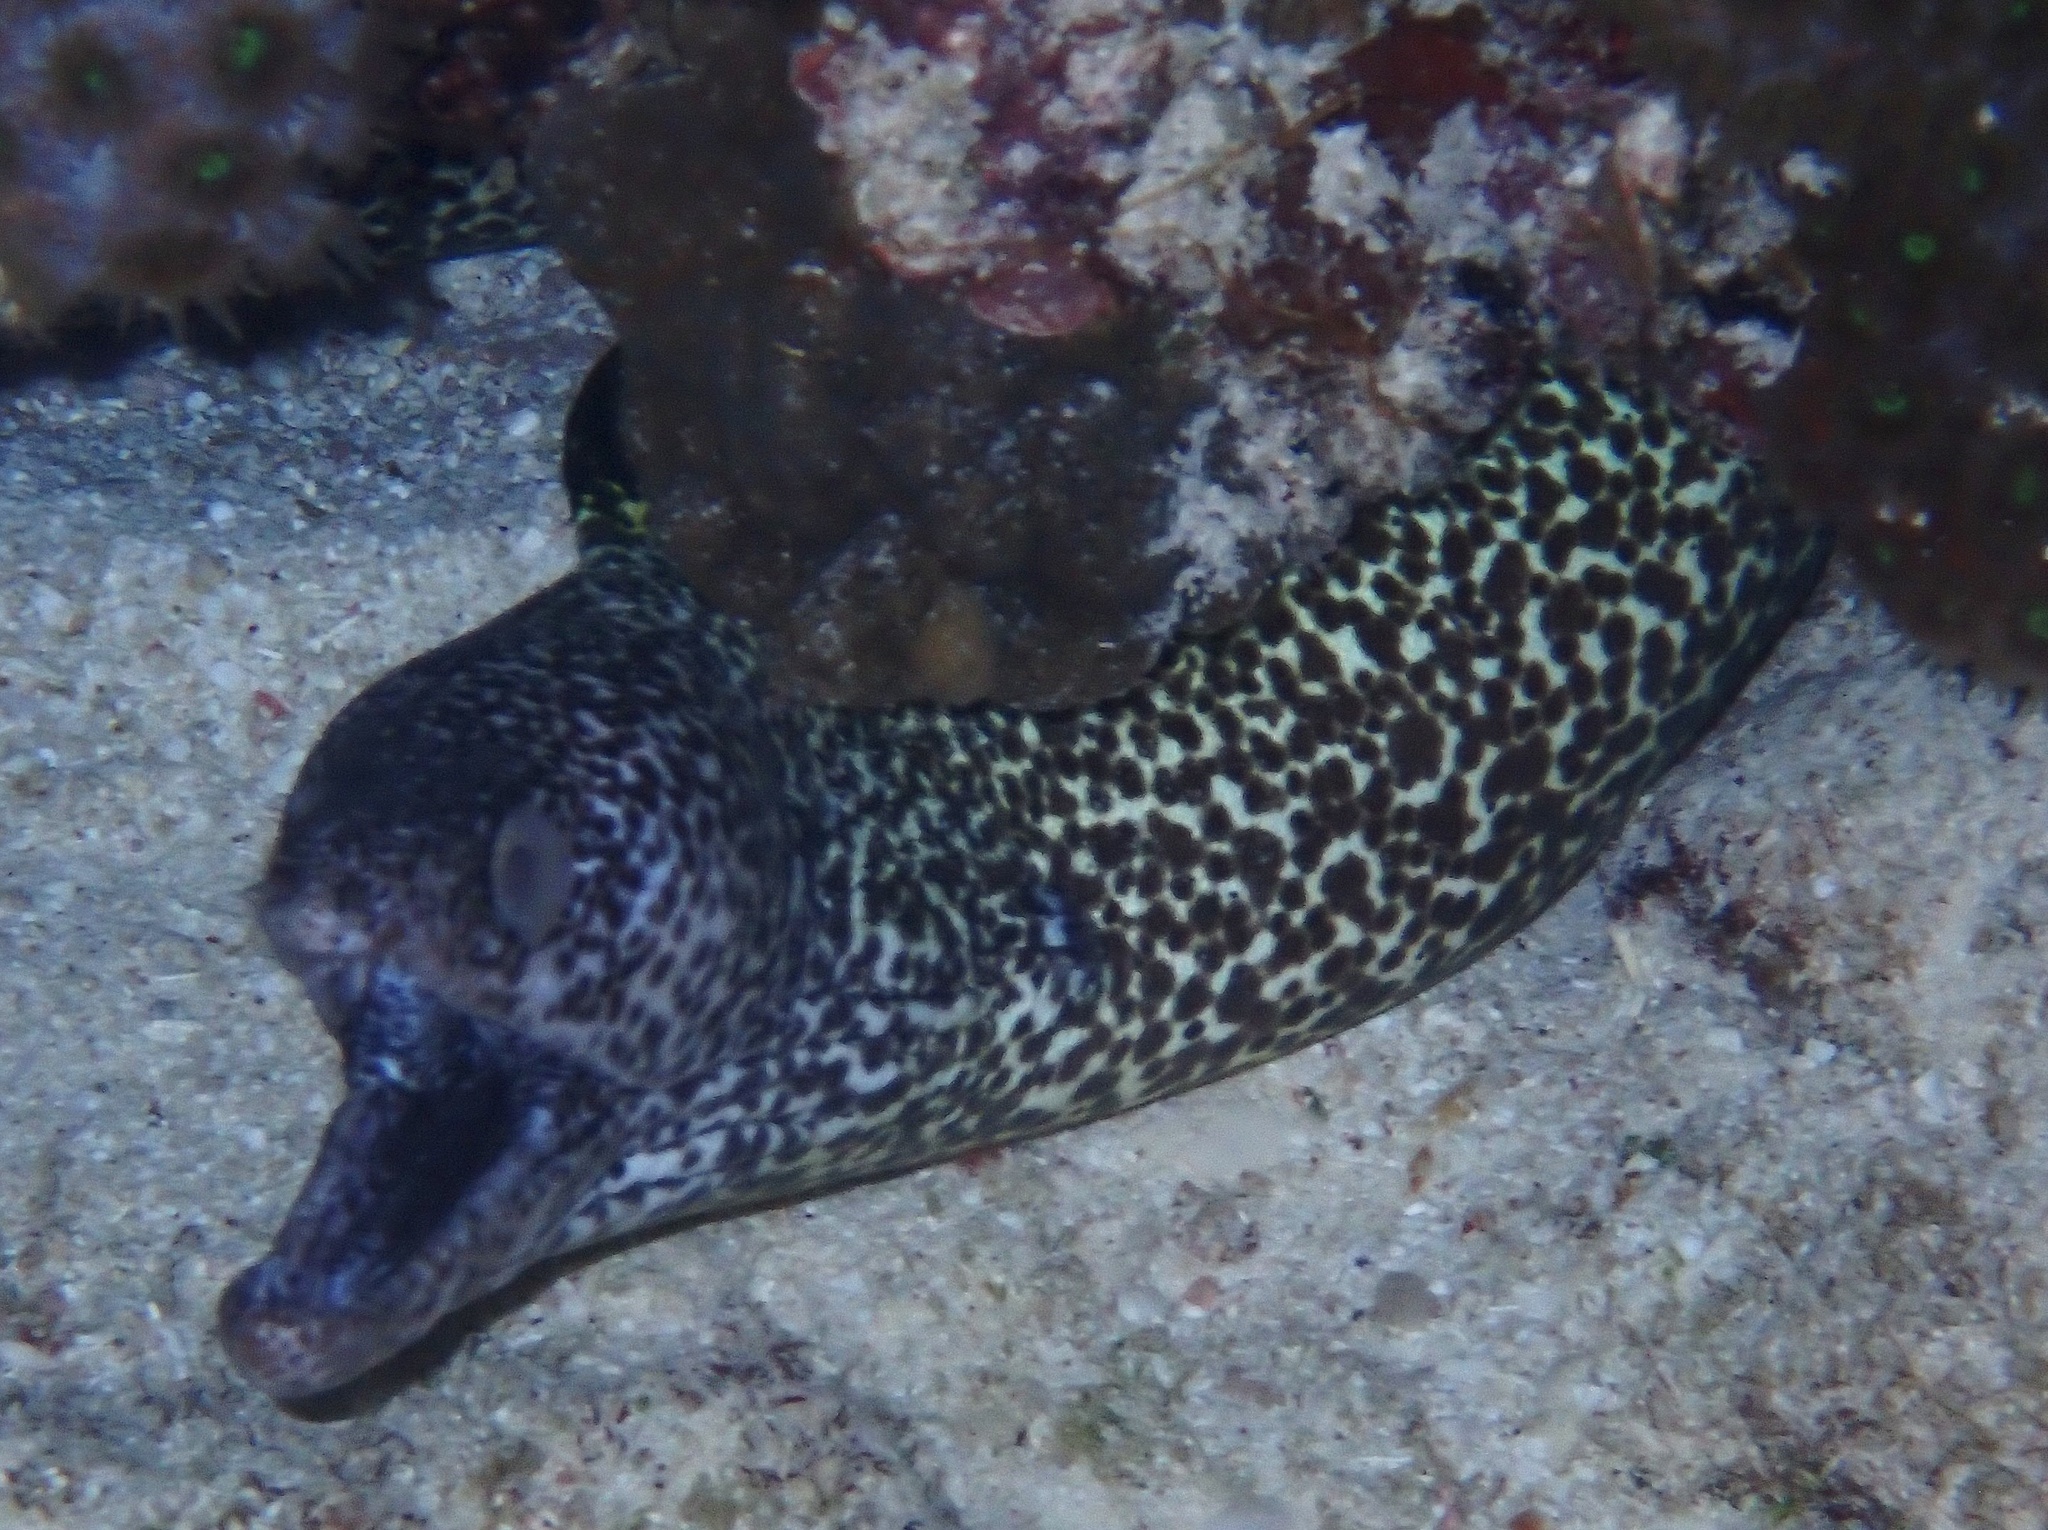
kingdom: Animalia
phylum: Chordata
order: Anguilliformes
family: Muraenidae
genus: Gymnothorax
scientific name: Gymnothorax moringa
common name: Spotted moray
